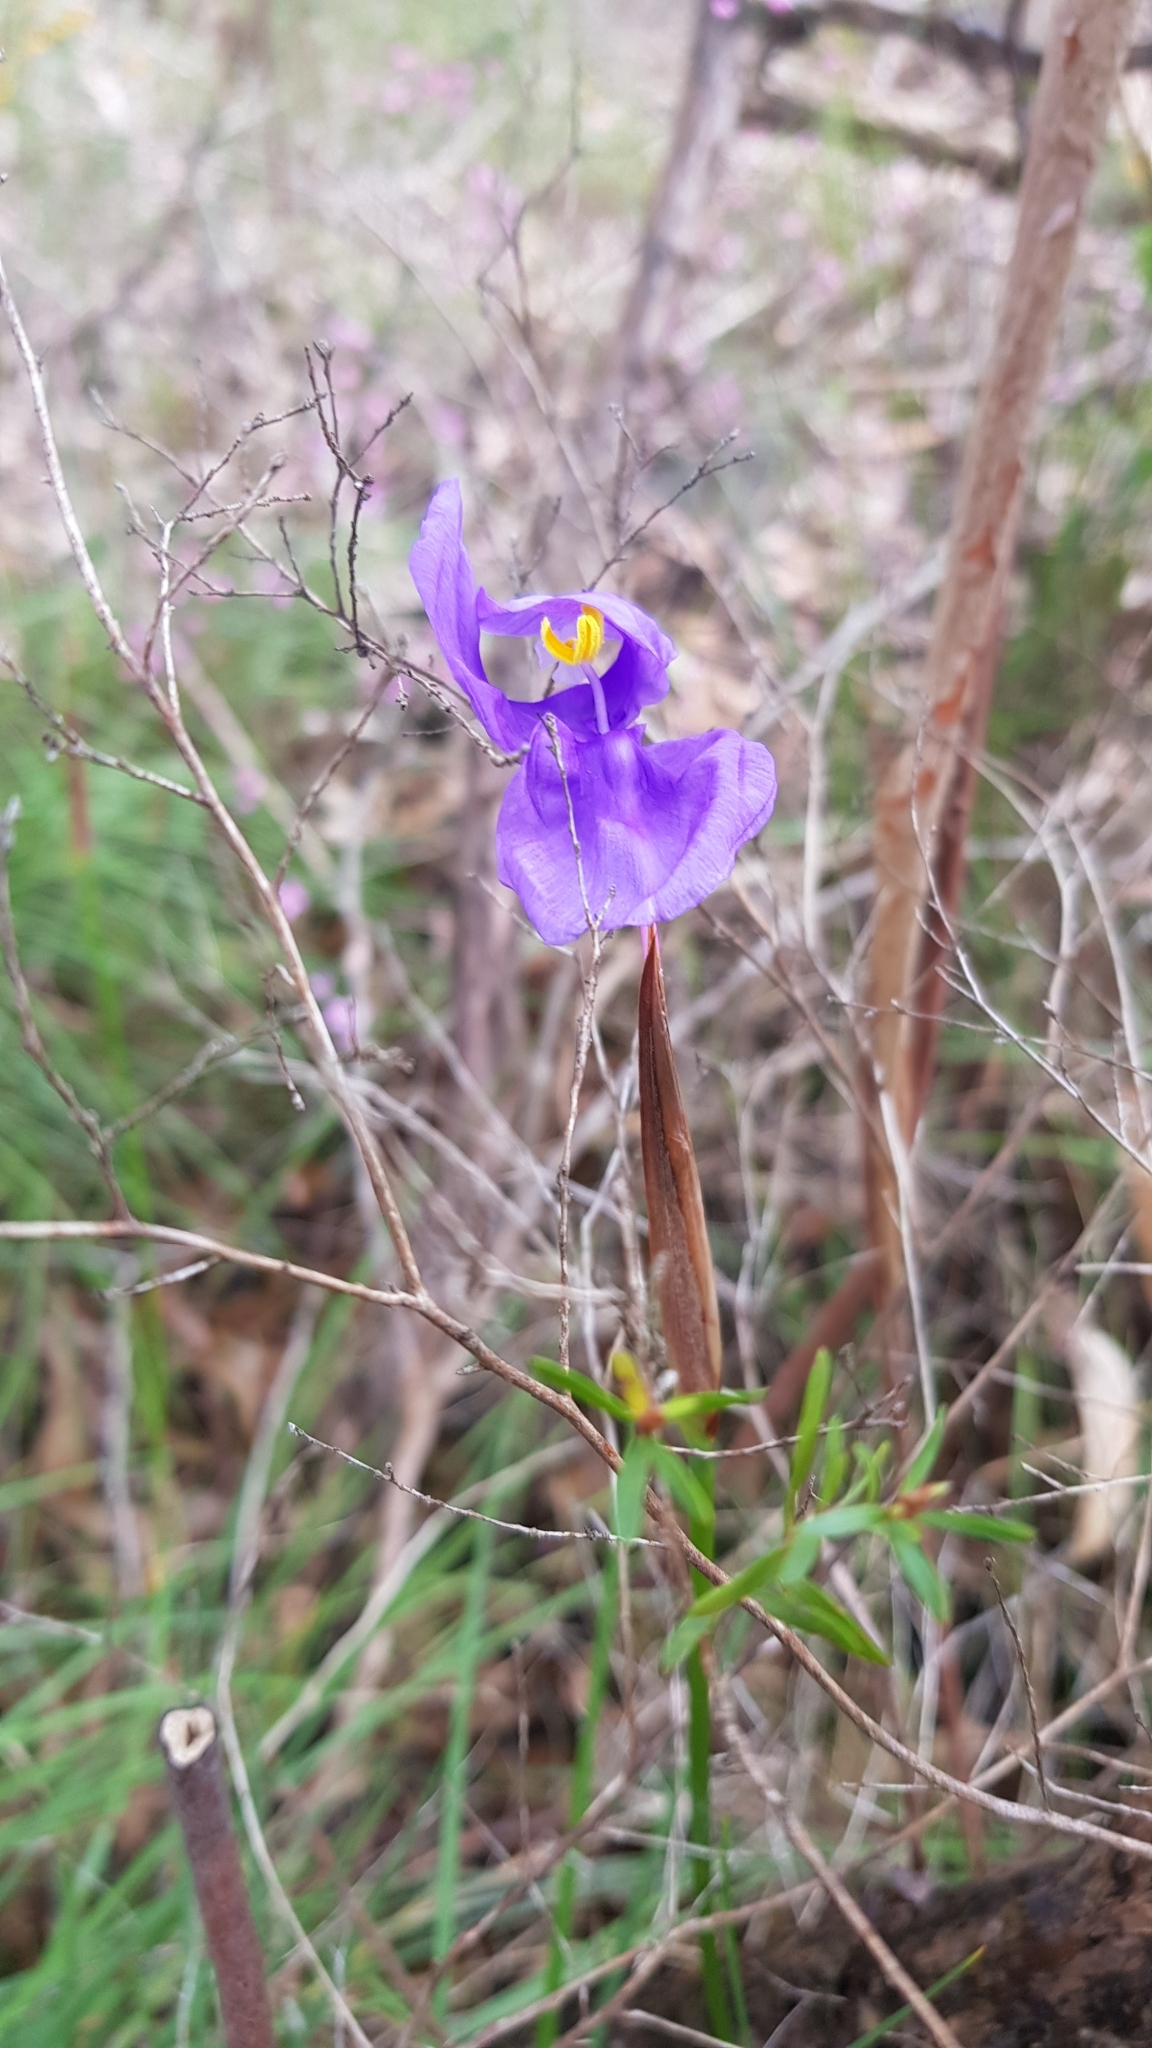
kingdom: Plantae
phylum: Tracheophyta
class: Liliopsida
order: Asparagales
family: Iridaceae
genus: Patersonia
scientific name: Patersonia glabrata
